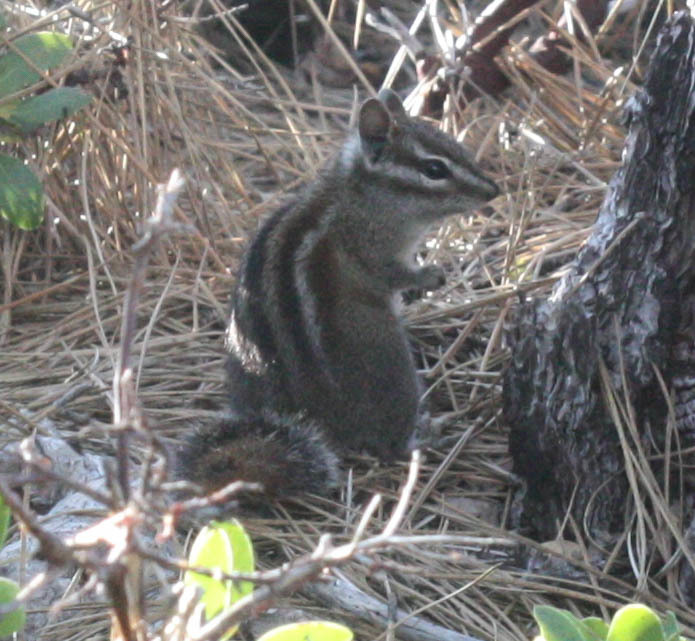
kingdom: Animalia
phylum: Chordata
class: Mammalia
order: Rodentia
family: Sciuridae
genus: Tamias
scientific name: Tamias sonomae
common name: Sonoma chipmunk
